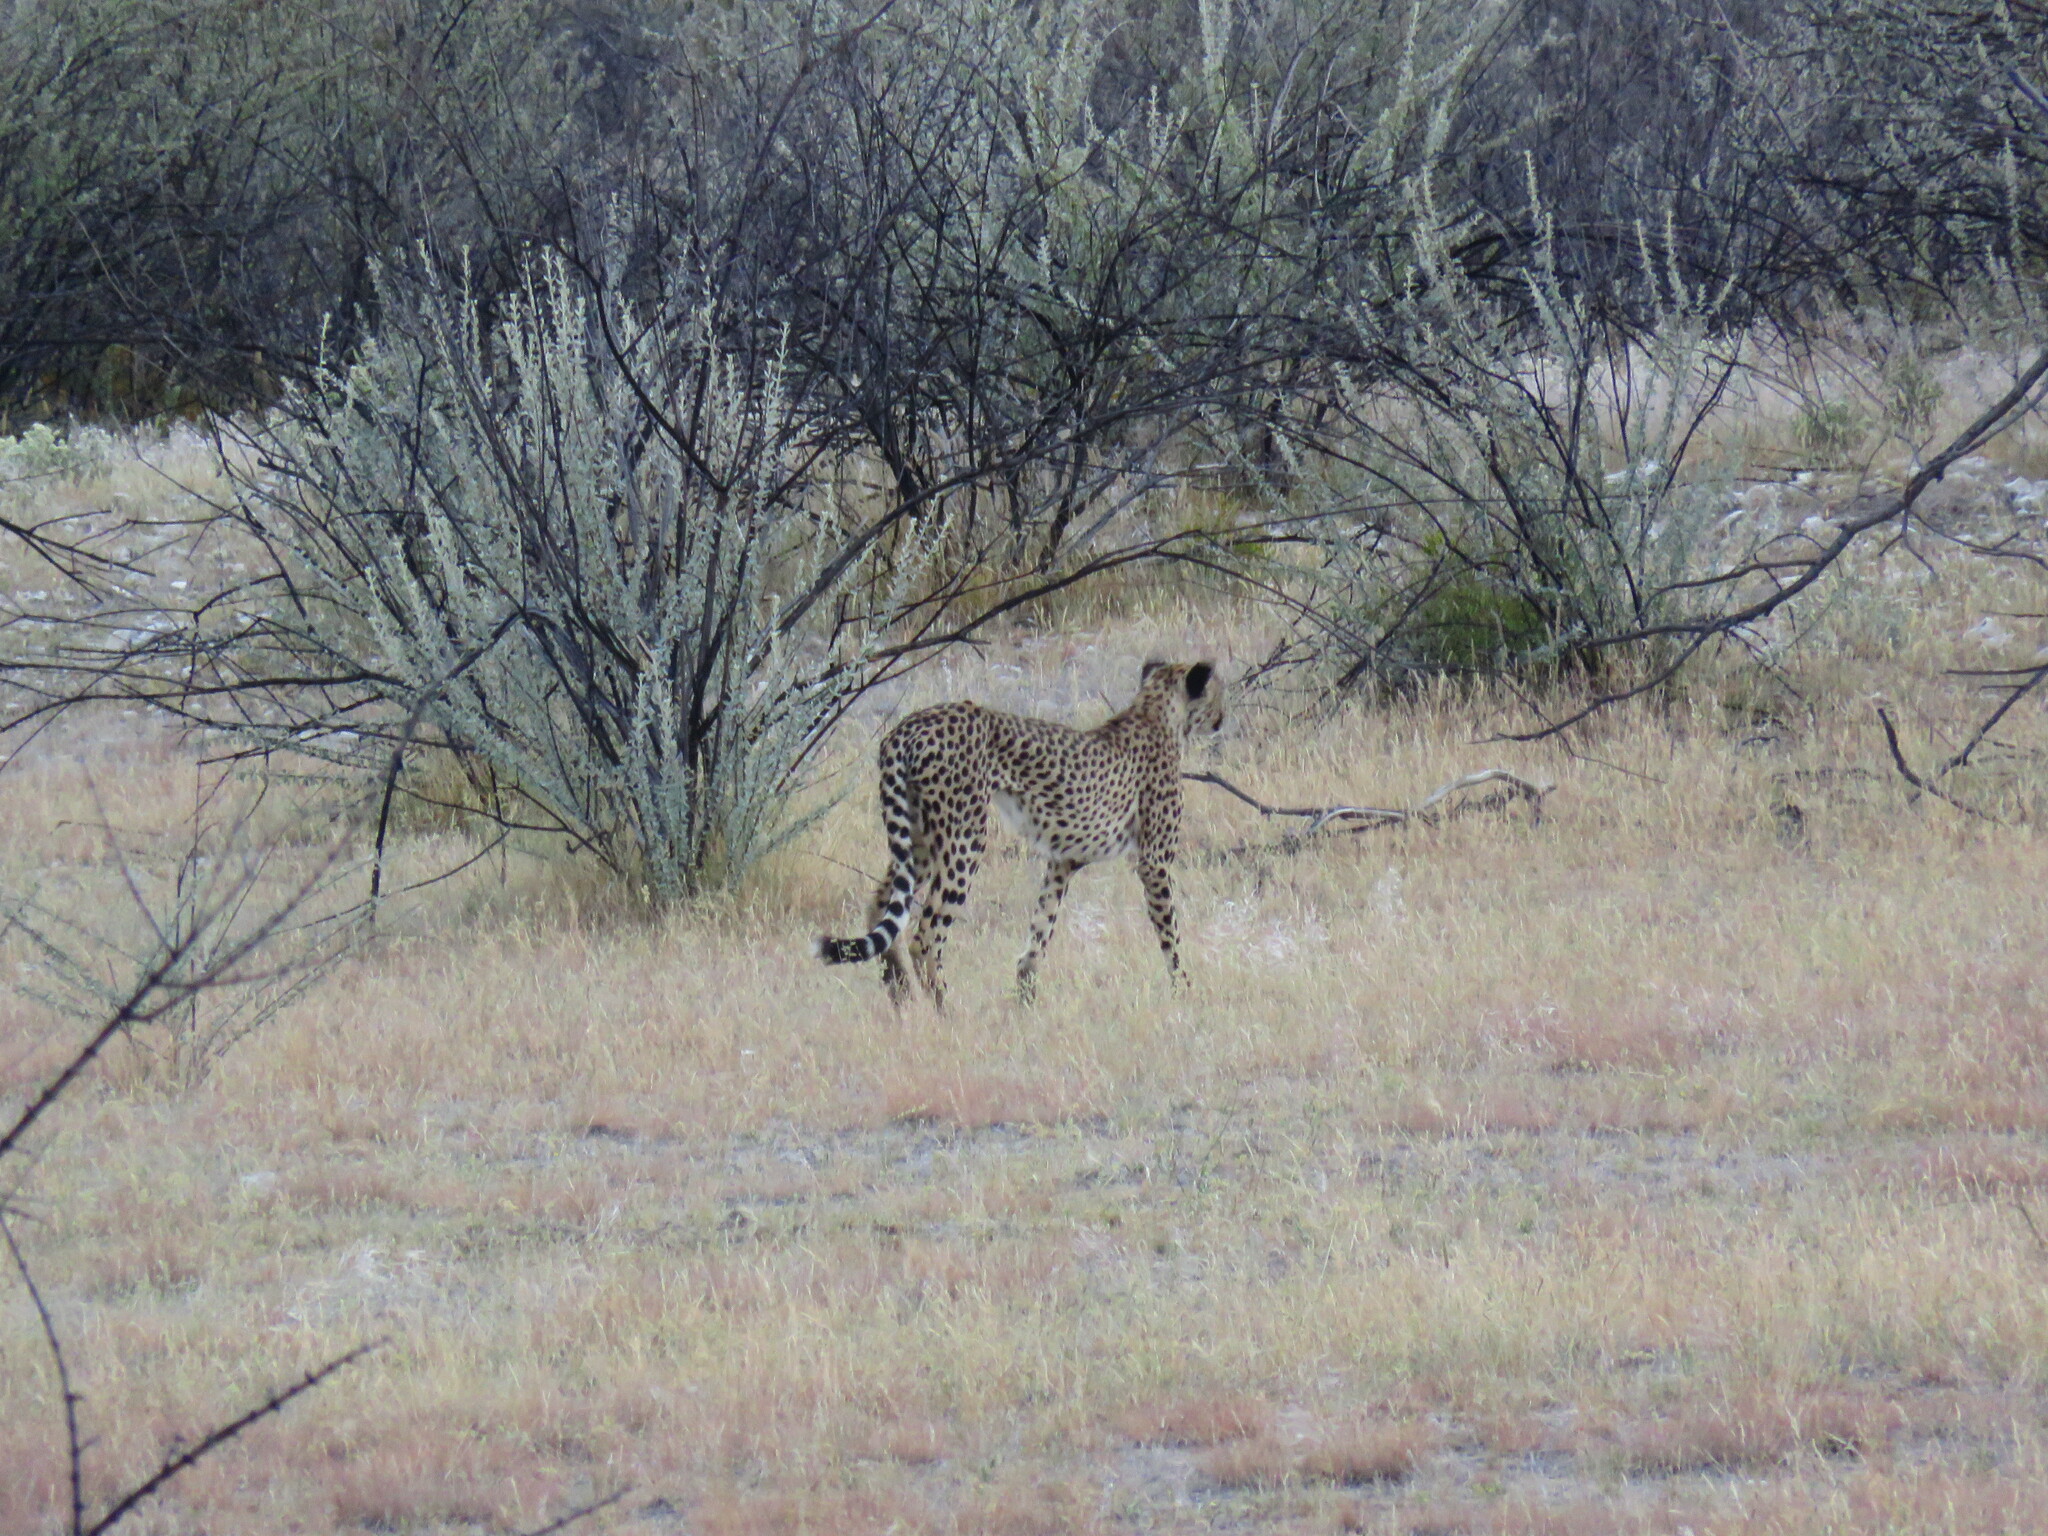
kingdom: Animalia
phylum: Chordata
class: Mammalia
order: Carnivora
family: Felidae
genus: Acinonyx
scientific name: Acinonyx jubatus
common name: Cheetah
